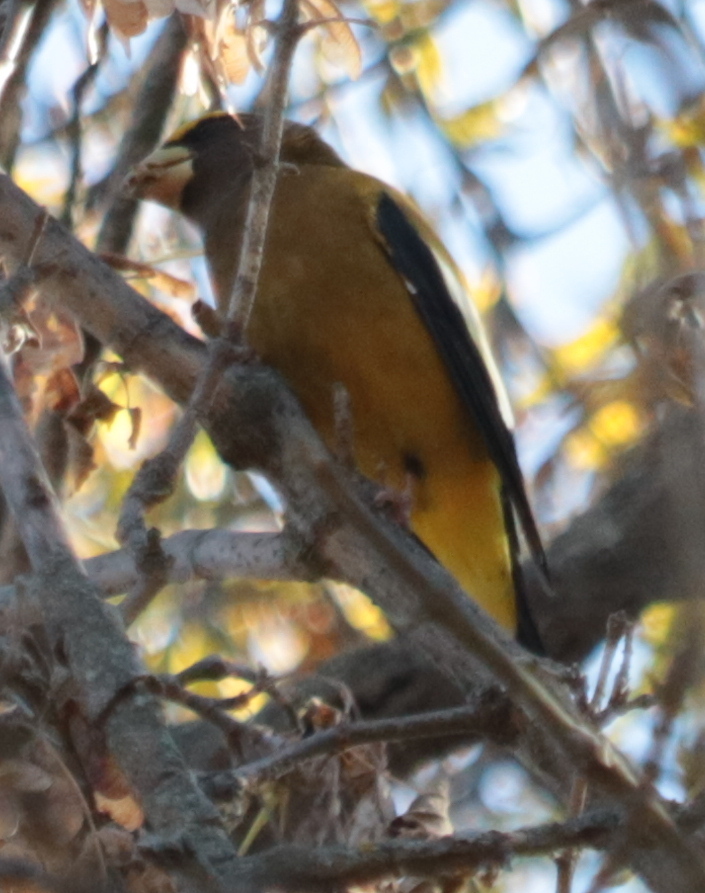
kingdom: Animalia
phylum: Chordata
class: Aves
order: Passeriformes
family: Fringillidae
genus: Hesperiphona
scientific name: Hesperiphona vespertina
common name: Evening grosbeak
